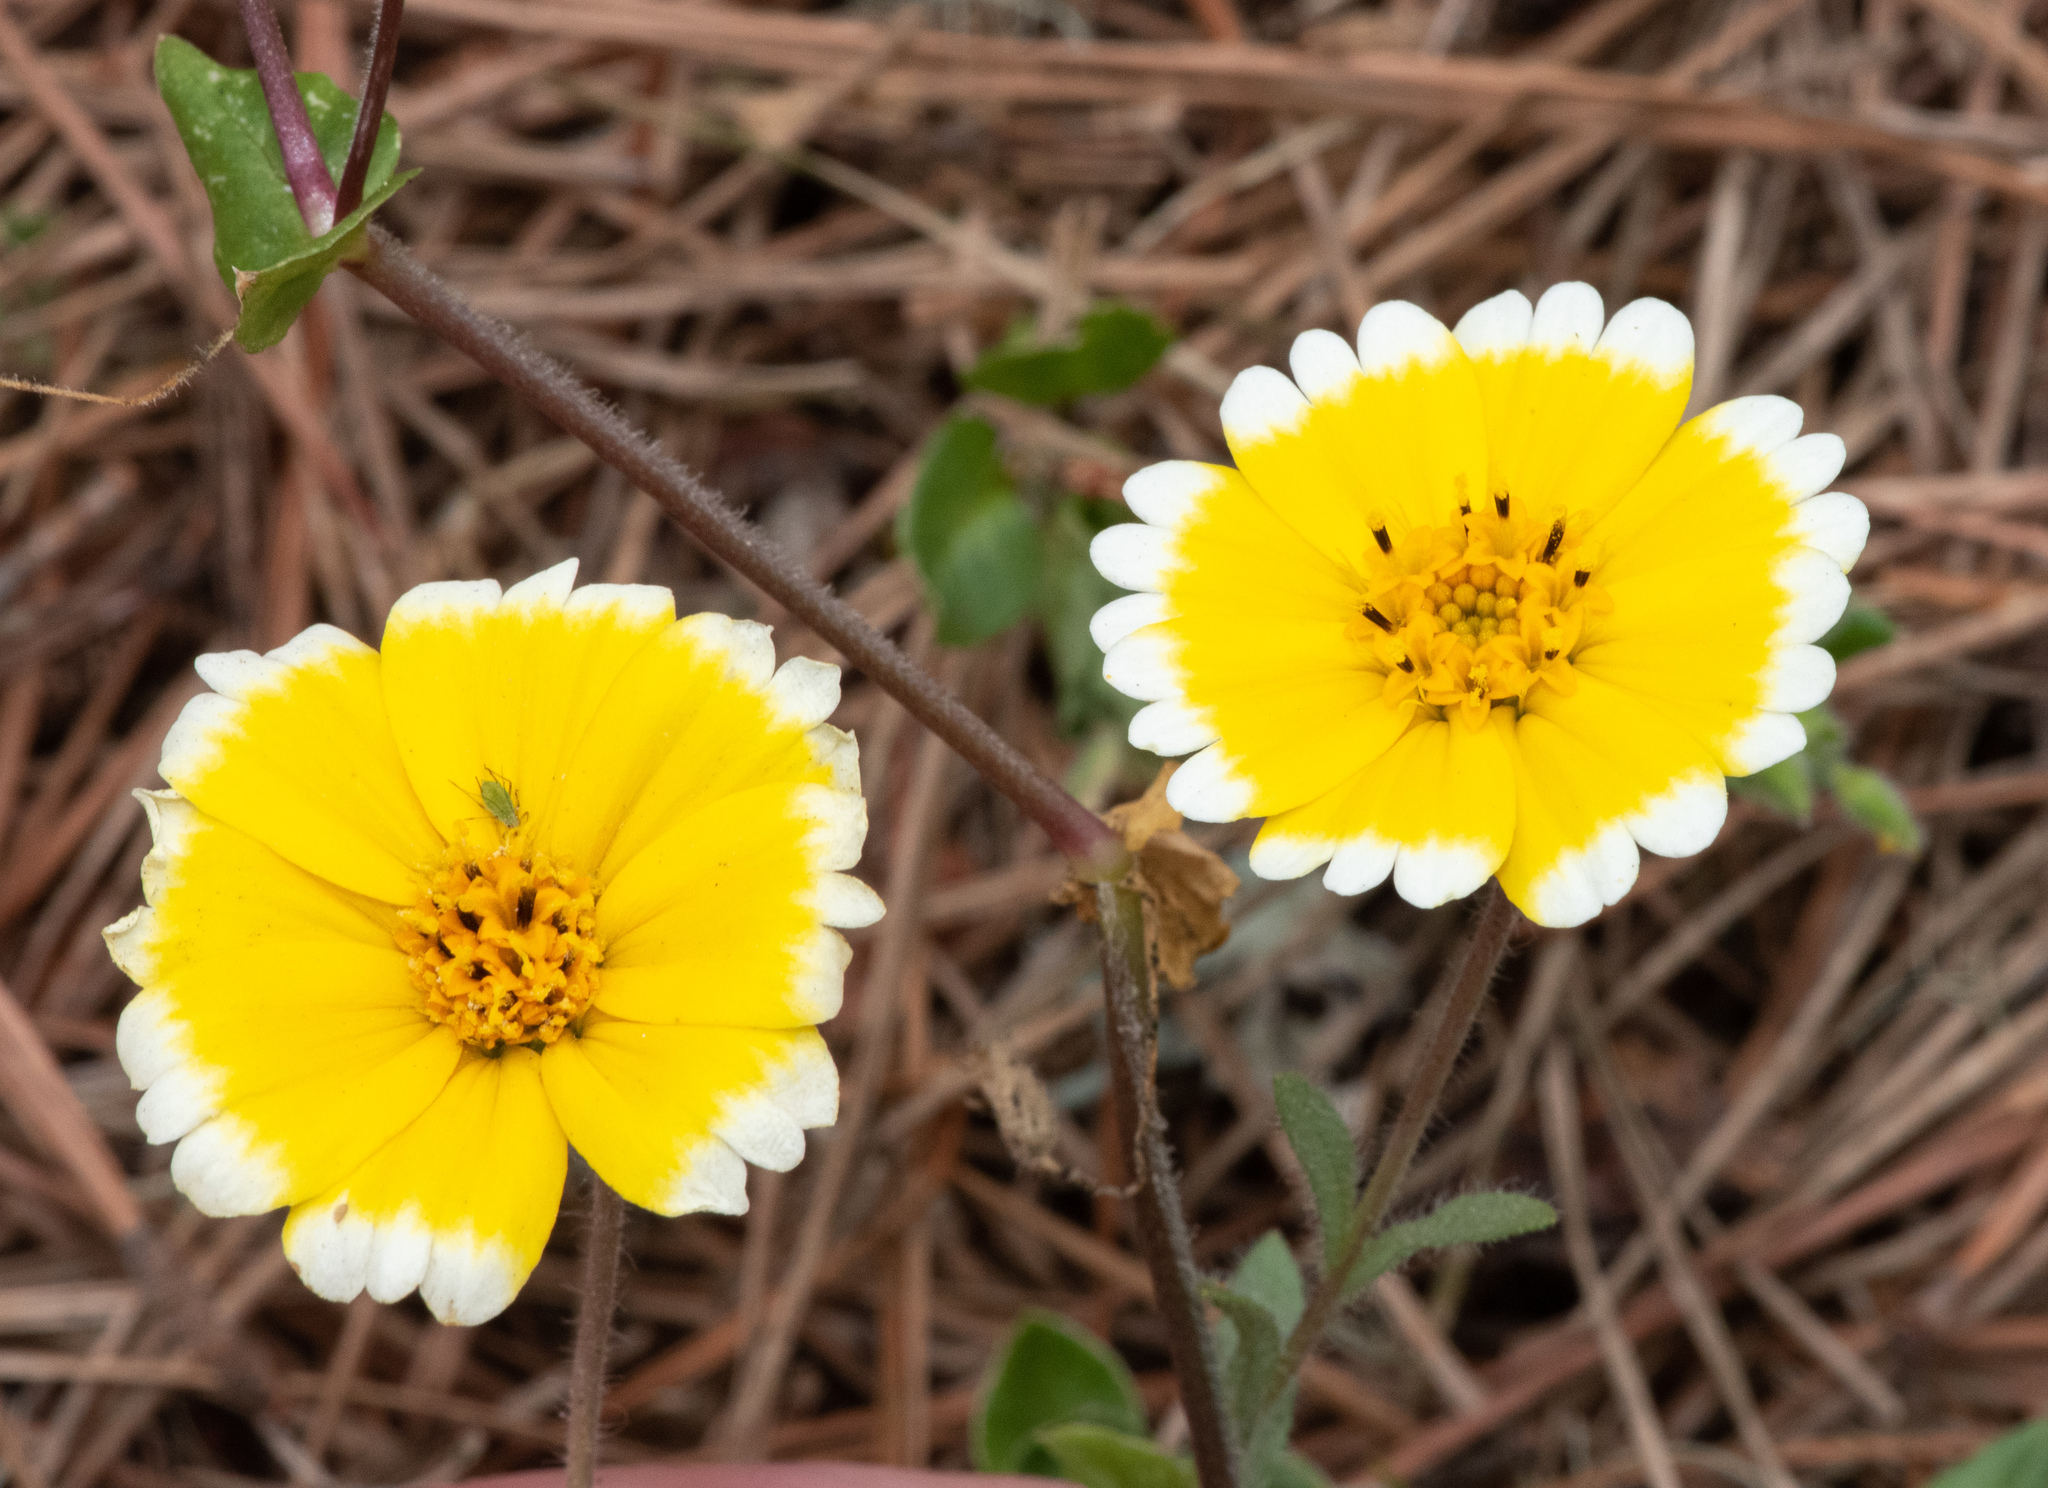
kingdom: Plantae
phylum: Tracheophyta
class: Magnoliopsida
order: Asterales
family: Asteraceae
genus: Layia
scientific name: Layia platyglossa
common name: Tidy-tips
